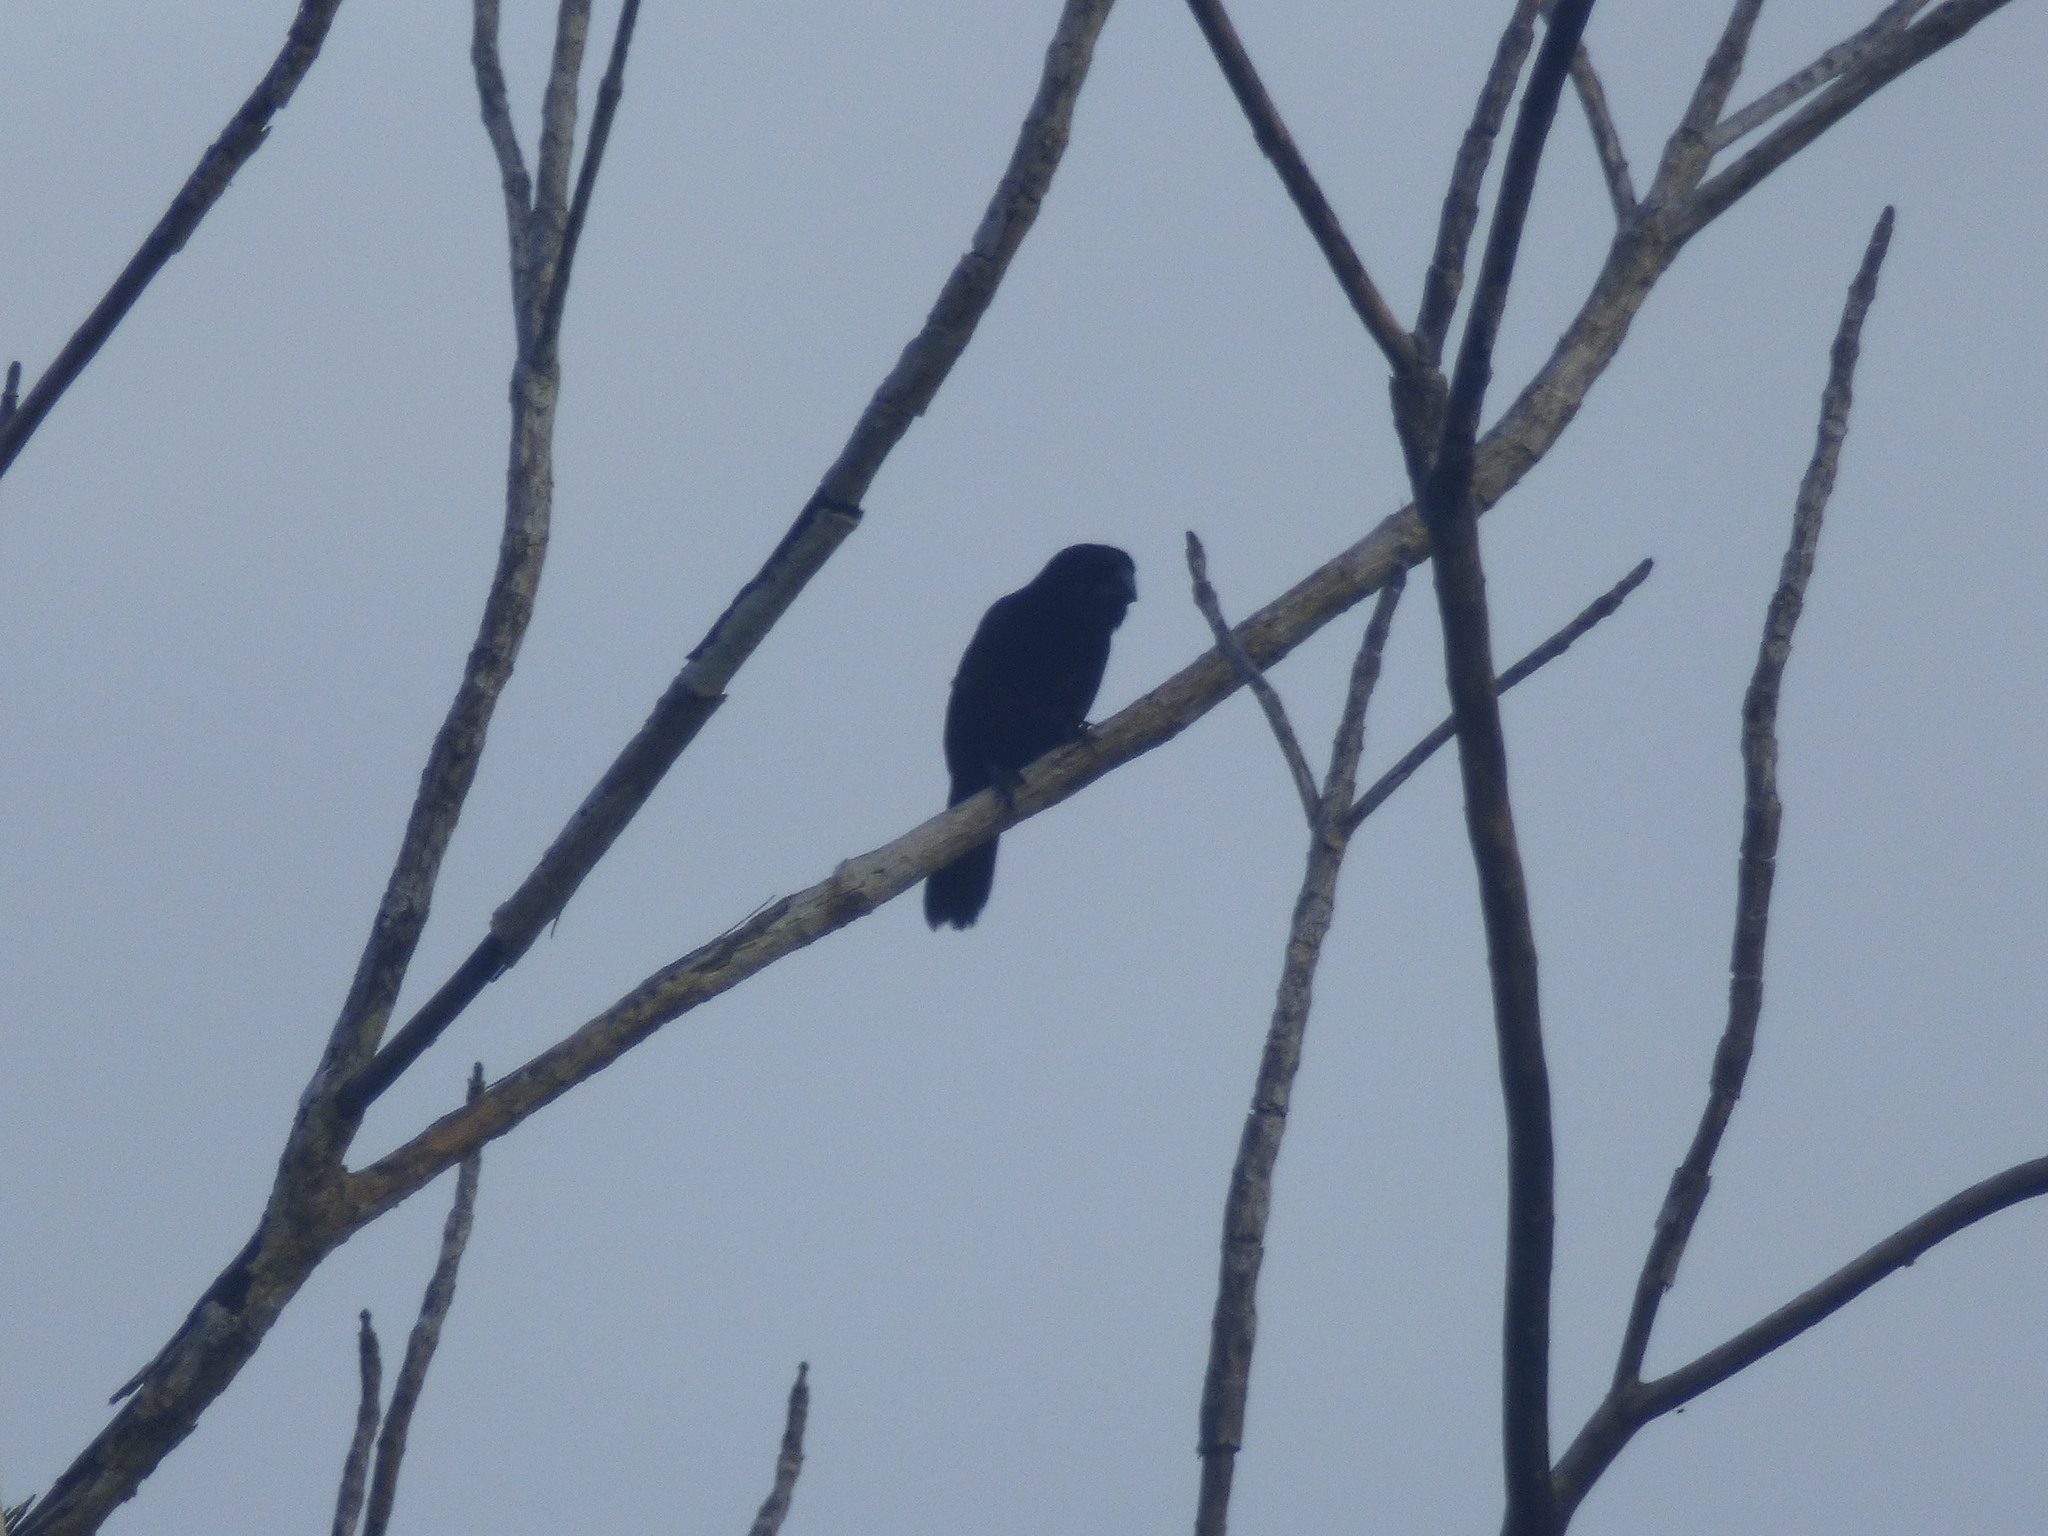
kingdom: Animalia
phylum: Chordata
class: Aves
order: Passeriformes
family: Thraupidae
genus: Sporophila
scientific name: Sporophila funerea
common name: Thick-billed seed-finch
